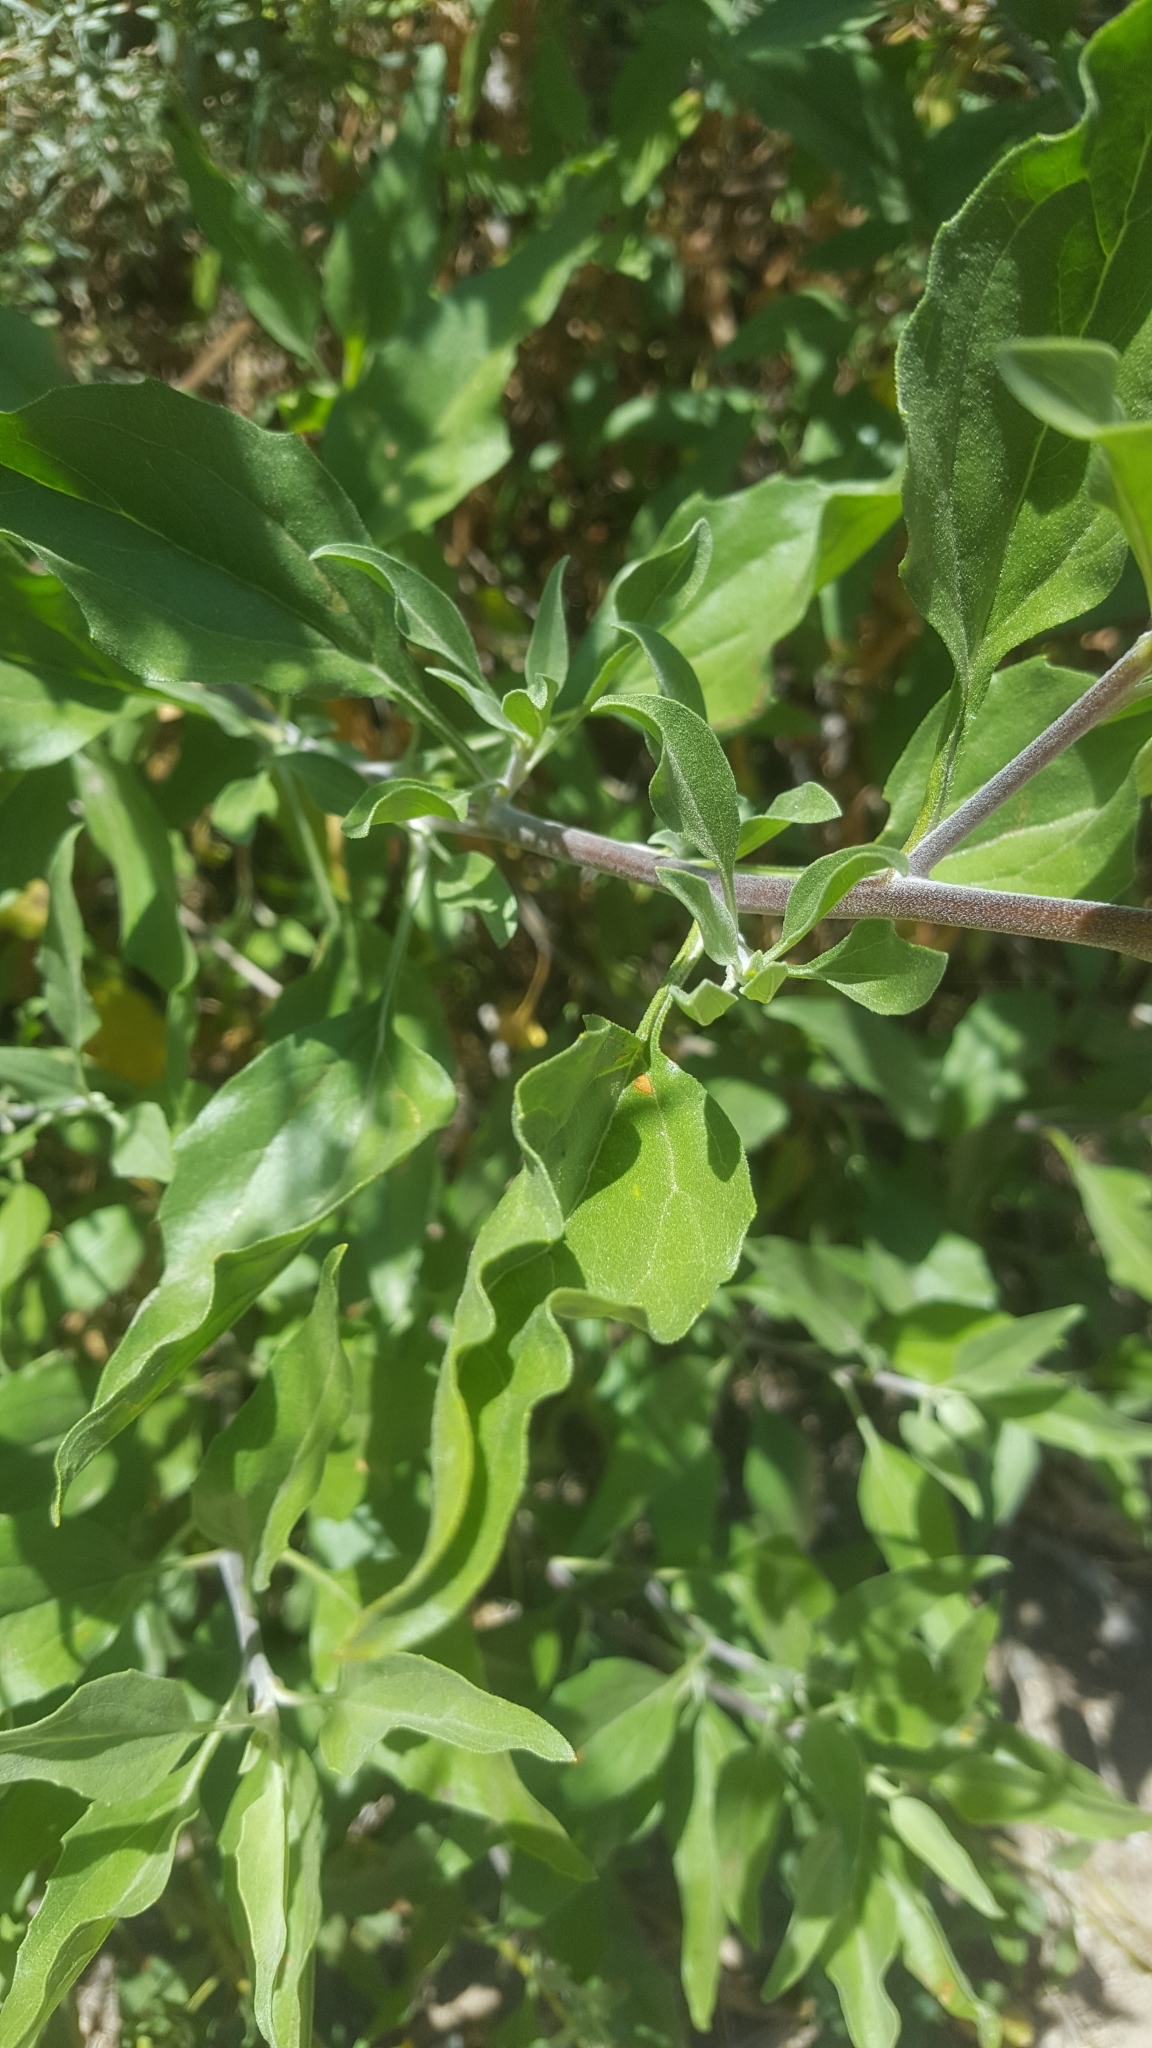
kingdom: Plantae
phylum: Tracheophyta
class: Magnoliopsida
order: Asterales
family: Asteraceae
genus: Encelia
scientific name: Encelia californica
